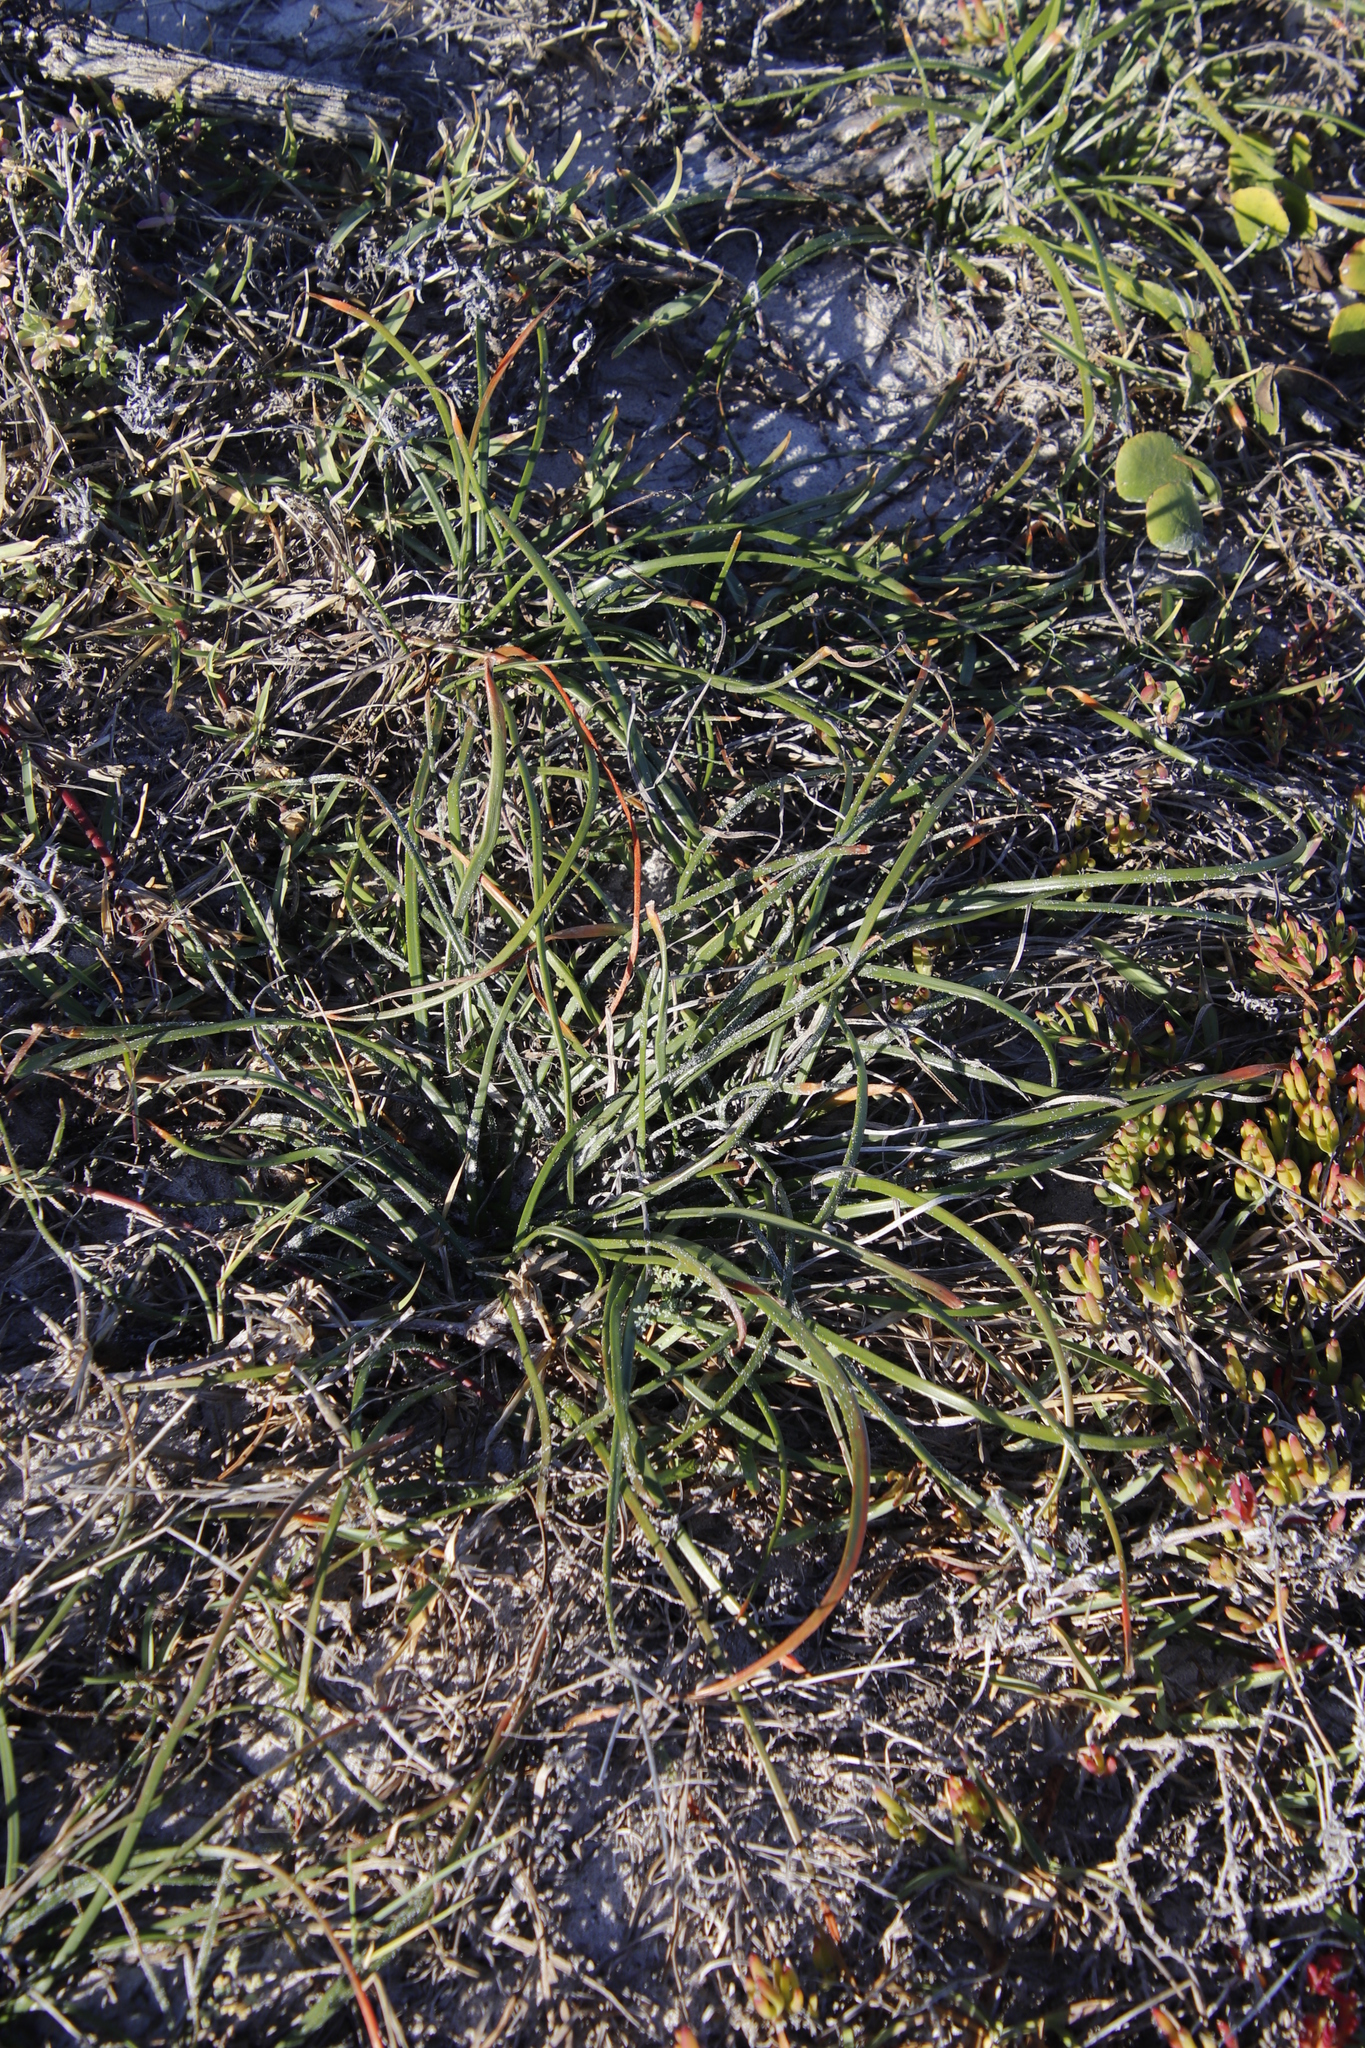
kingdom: Plantae
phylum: Tracheophyta
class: Liliopsida
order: Asparagales
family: Asphodelaceae
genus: Trachyandra
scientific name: Trachyandra divaricata
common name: Dune onionweed
